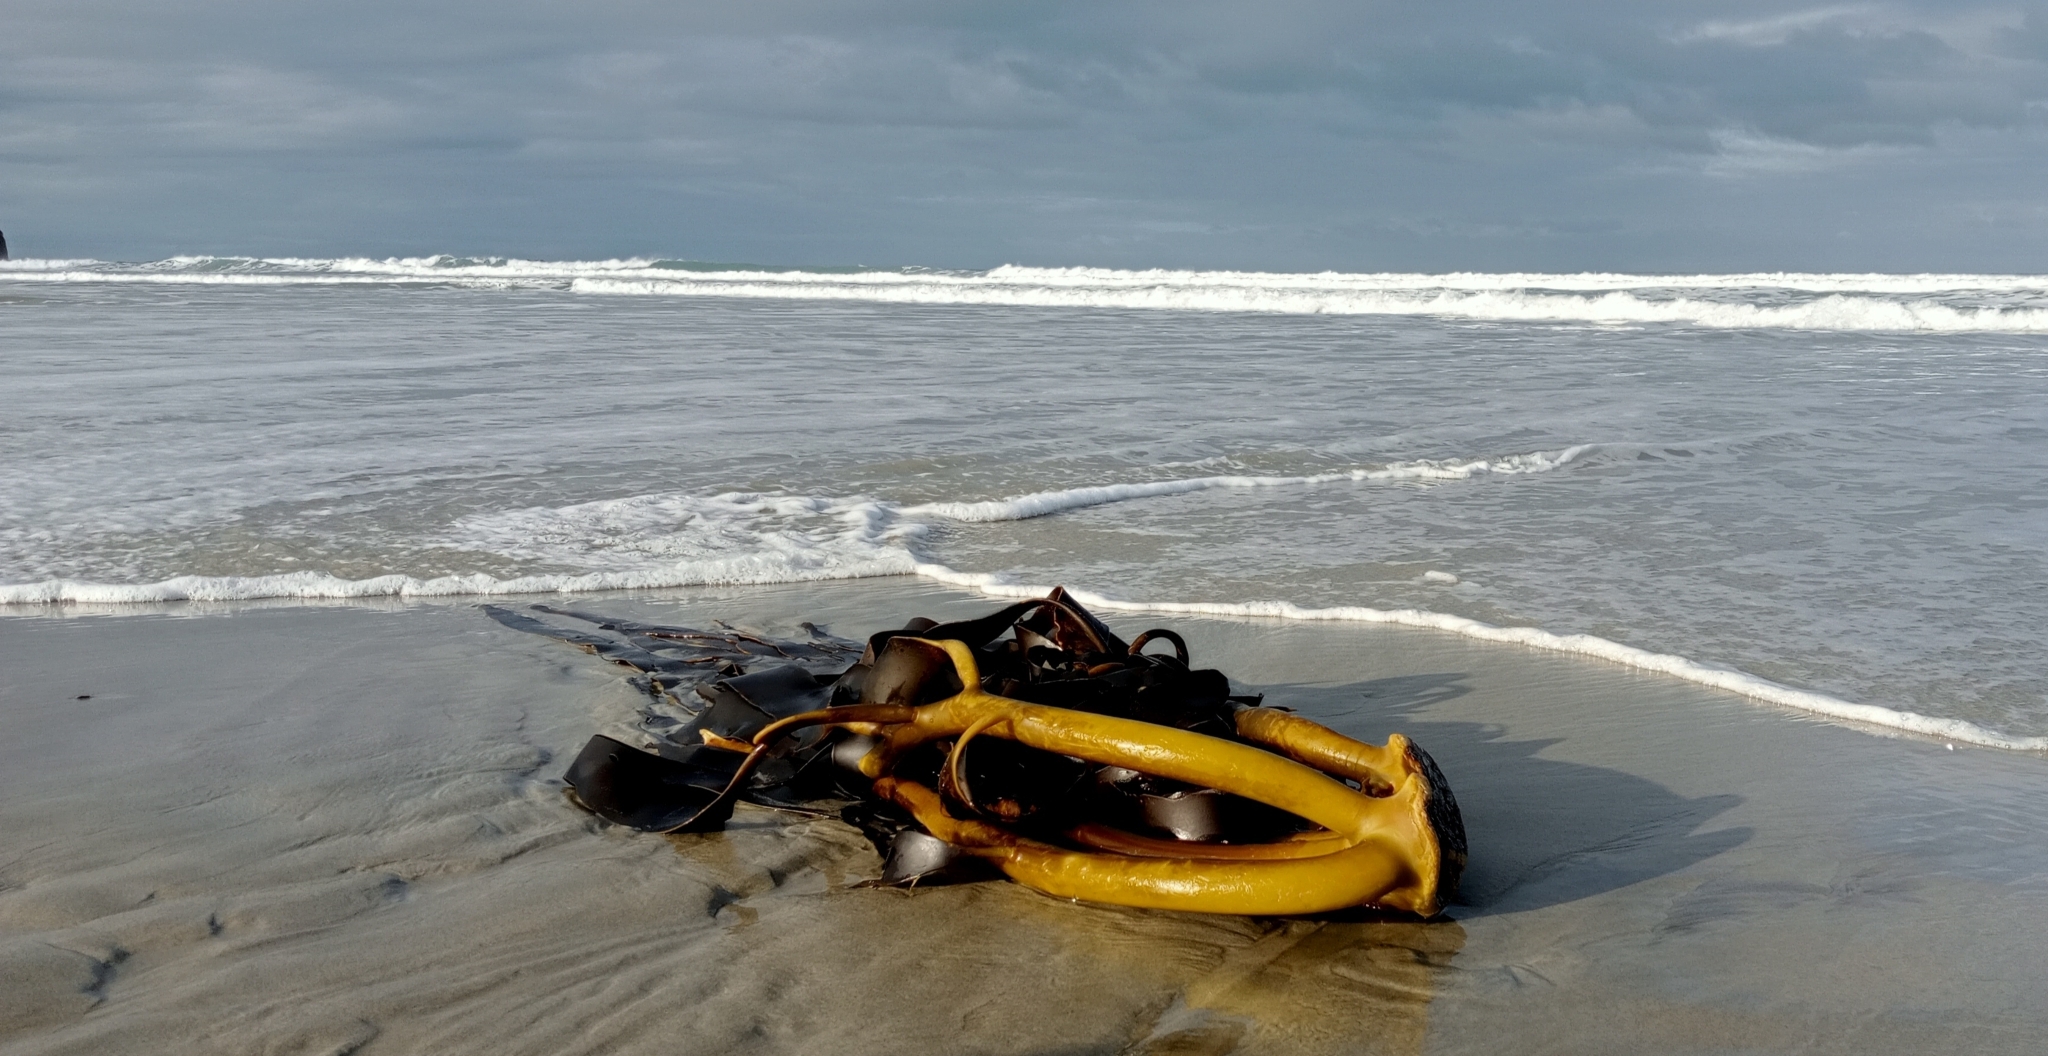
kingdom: Chromista
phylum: Ochrophyta
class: Phaeophyceae
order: Fucales
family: Durvillaeaceae
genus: Durvillaea
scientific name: Durvillaea willana
